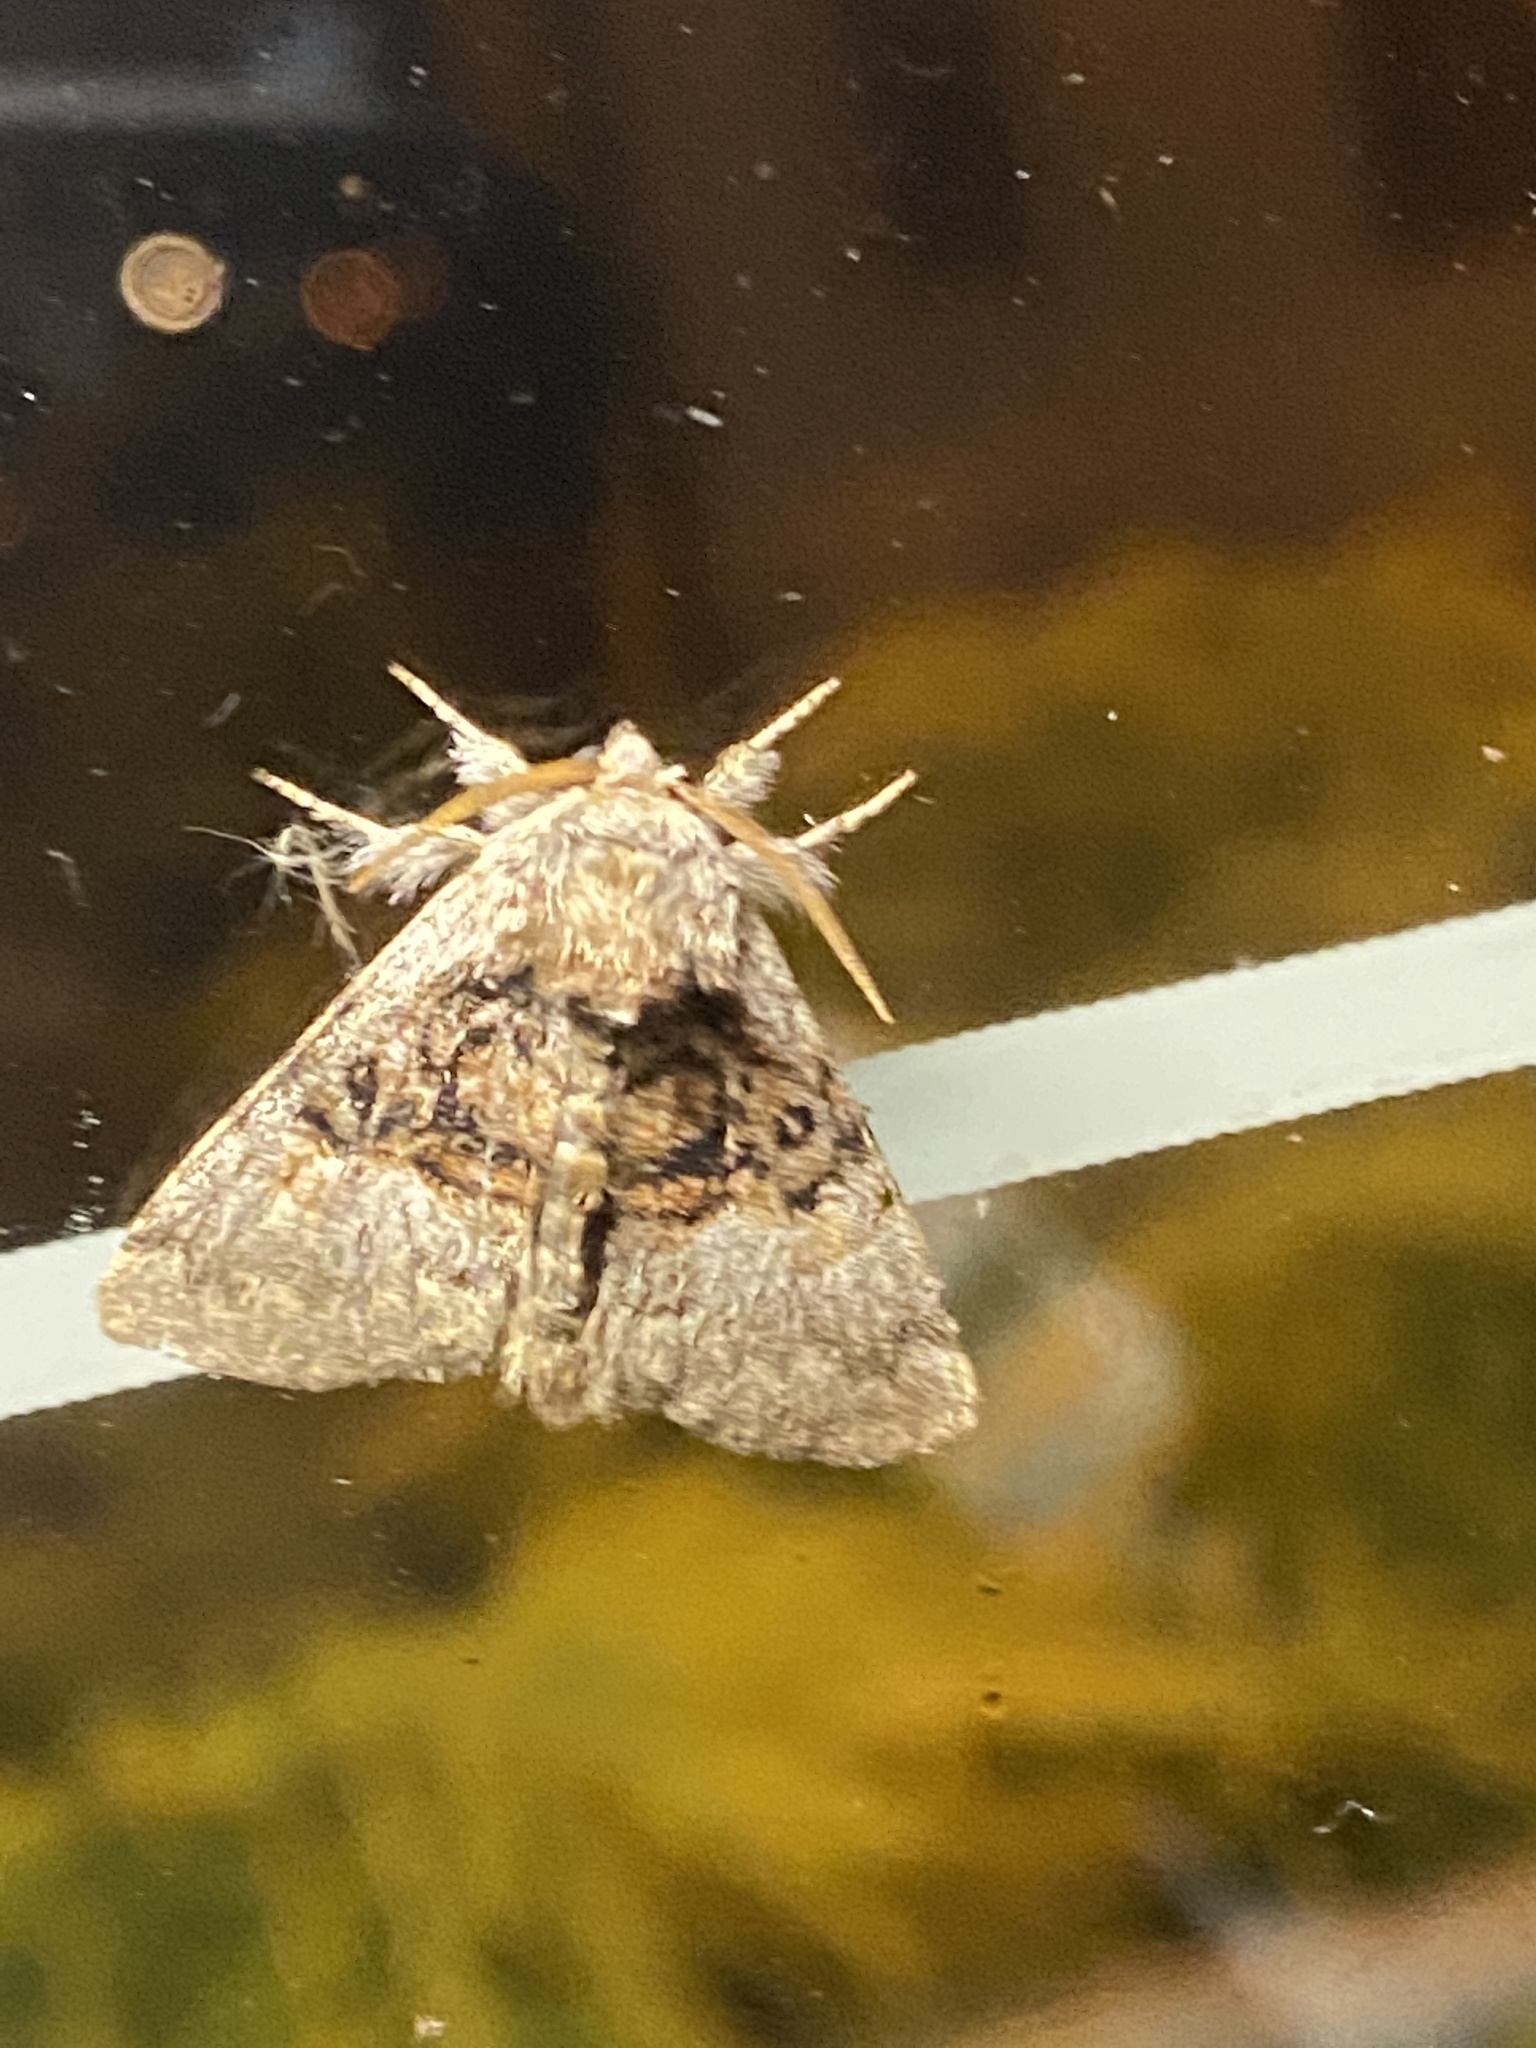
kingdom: Animalia
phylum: Arthropoda
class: Insecta
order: Lepidoptera
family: Noctuidae
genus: Colocasia
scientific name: Colocasia coryli
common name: Nut-tree tussock
